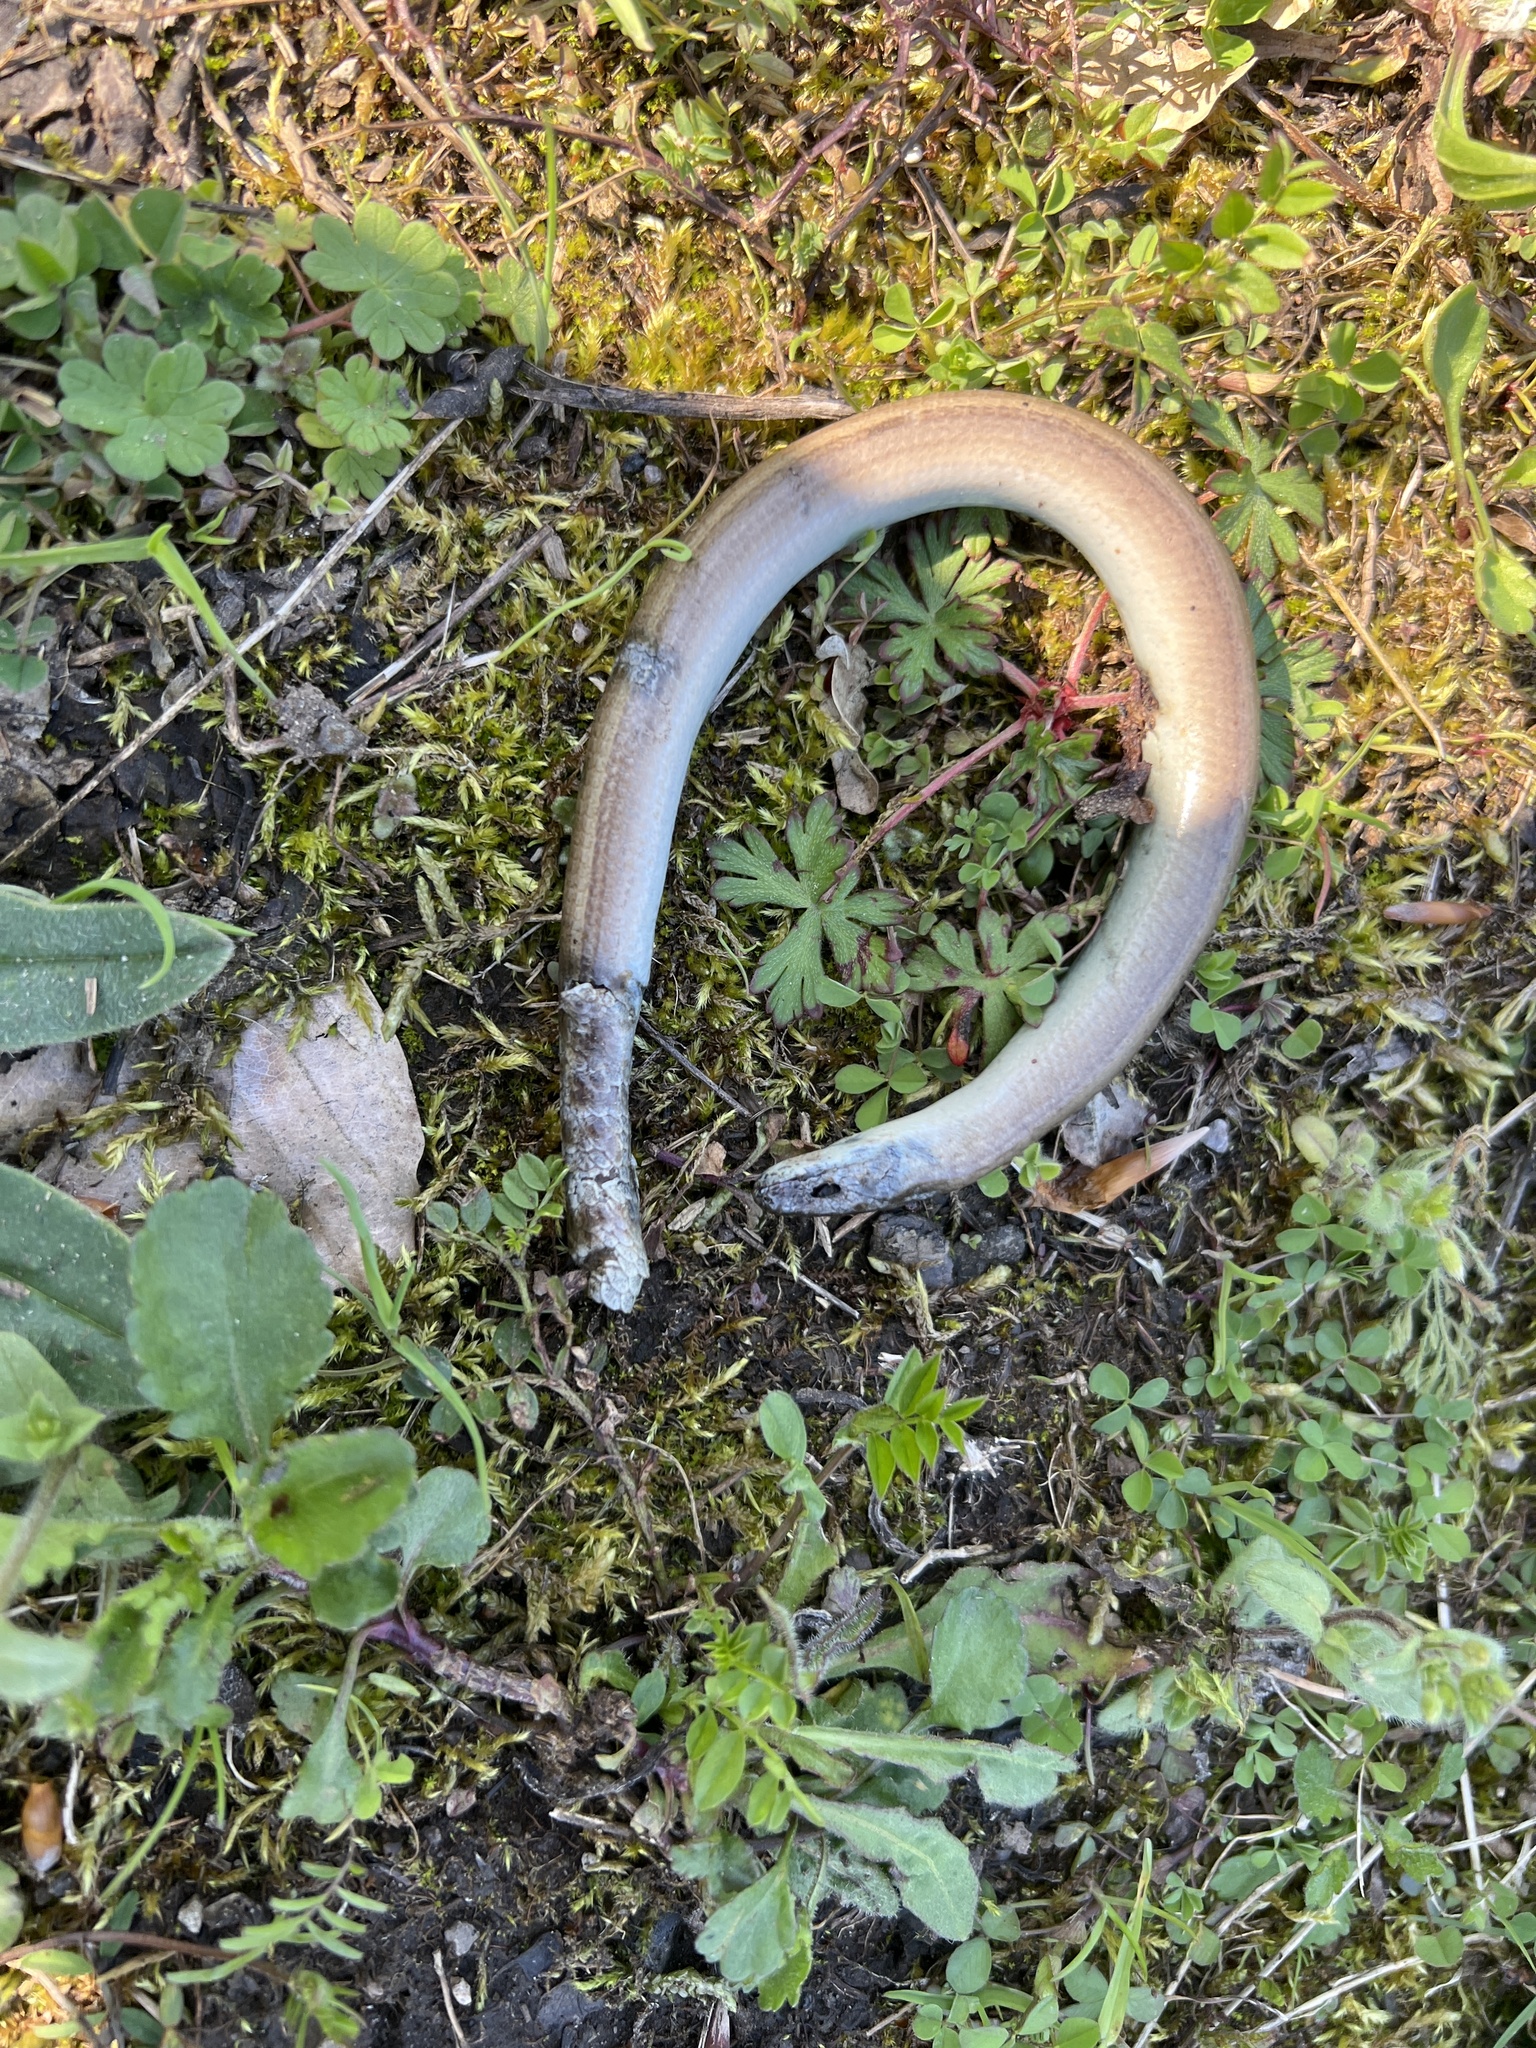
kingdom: Animalia
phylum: Chordata
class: Squamata
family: Anguidae
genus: Anguis
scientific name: Anguis fragilis
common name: Slow worm
